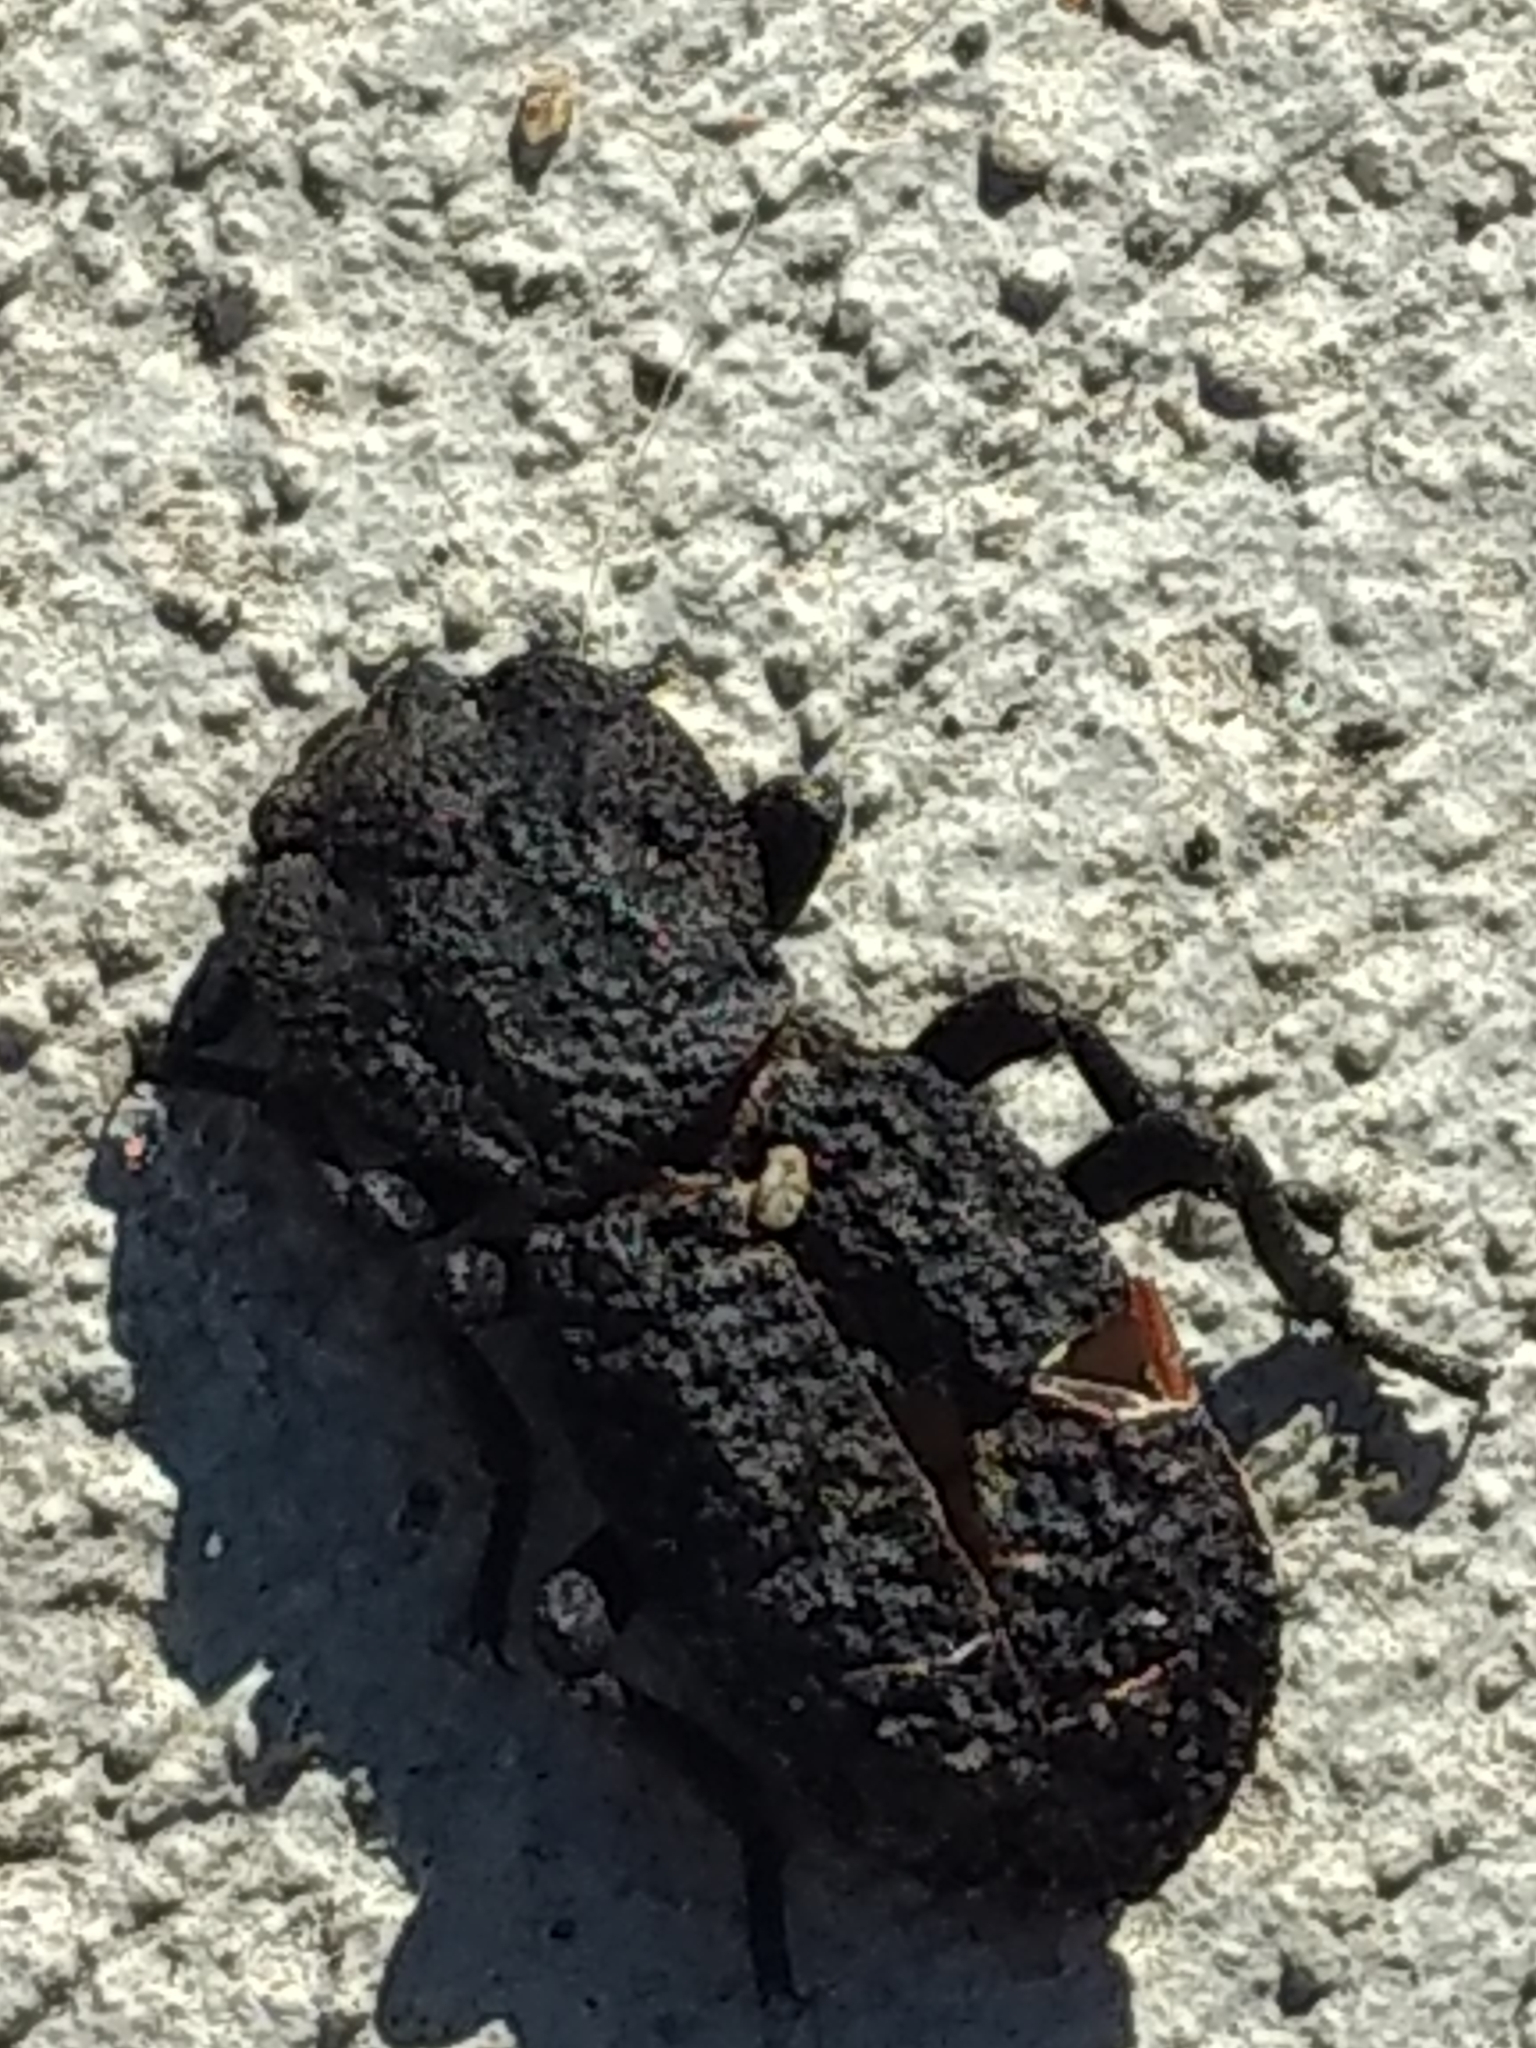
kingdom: Animalia
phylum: Arthropoda
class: Insecta
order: Coleoptera
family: Zopheridae
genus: Phloeodes
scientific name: Phloeodes diabolicus
